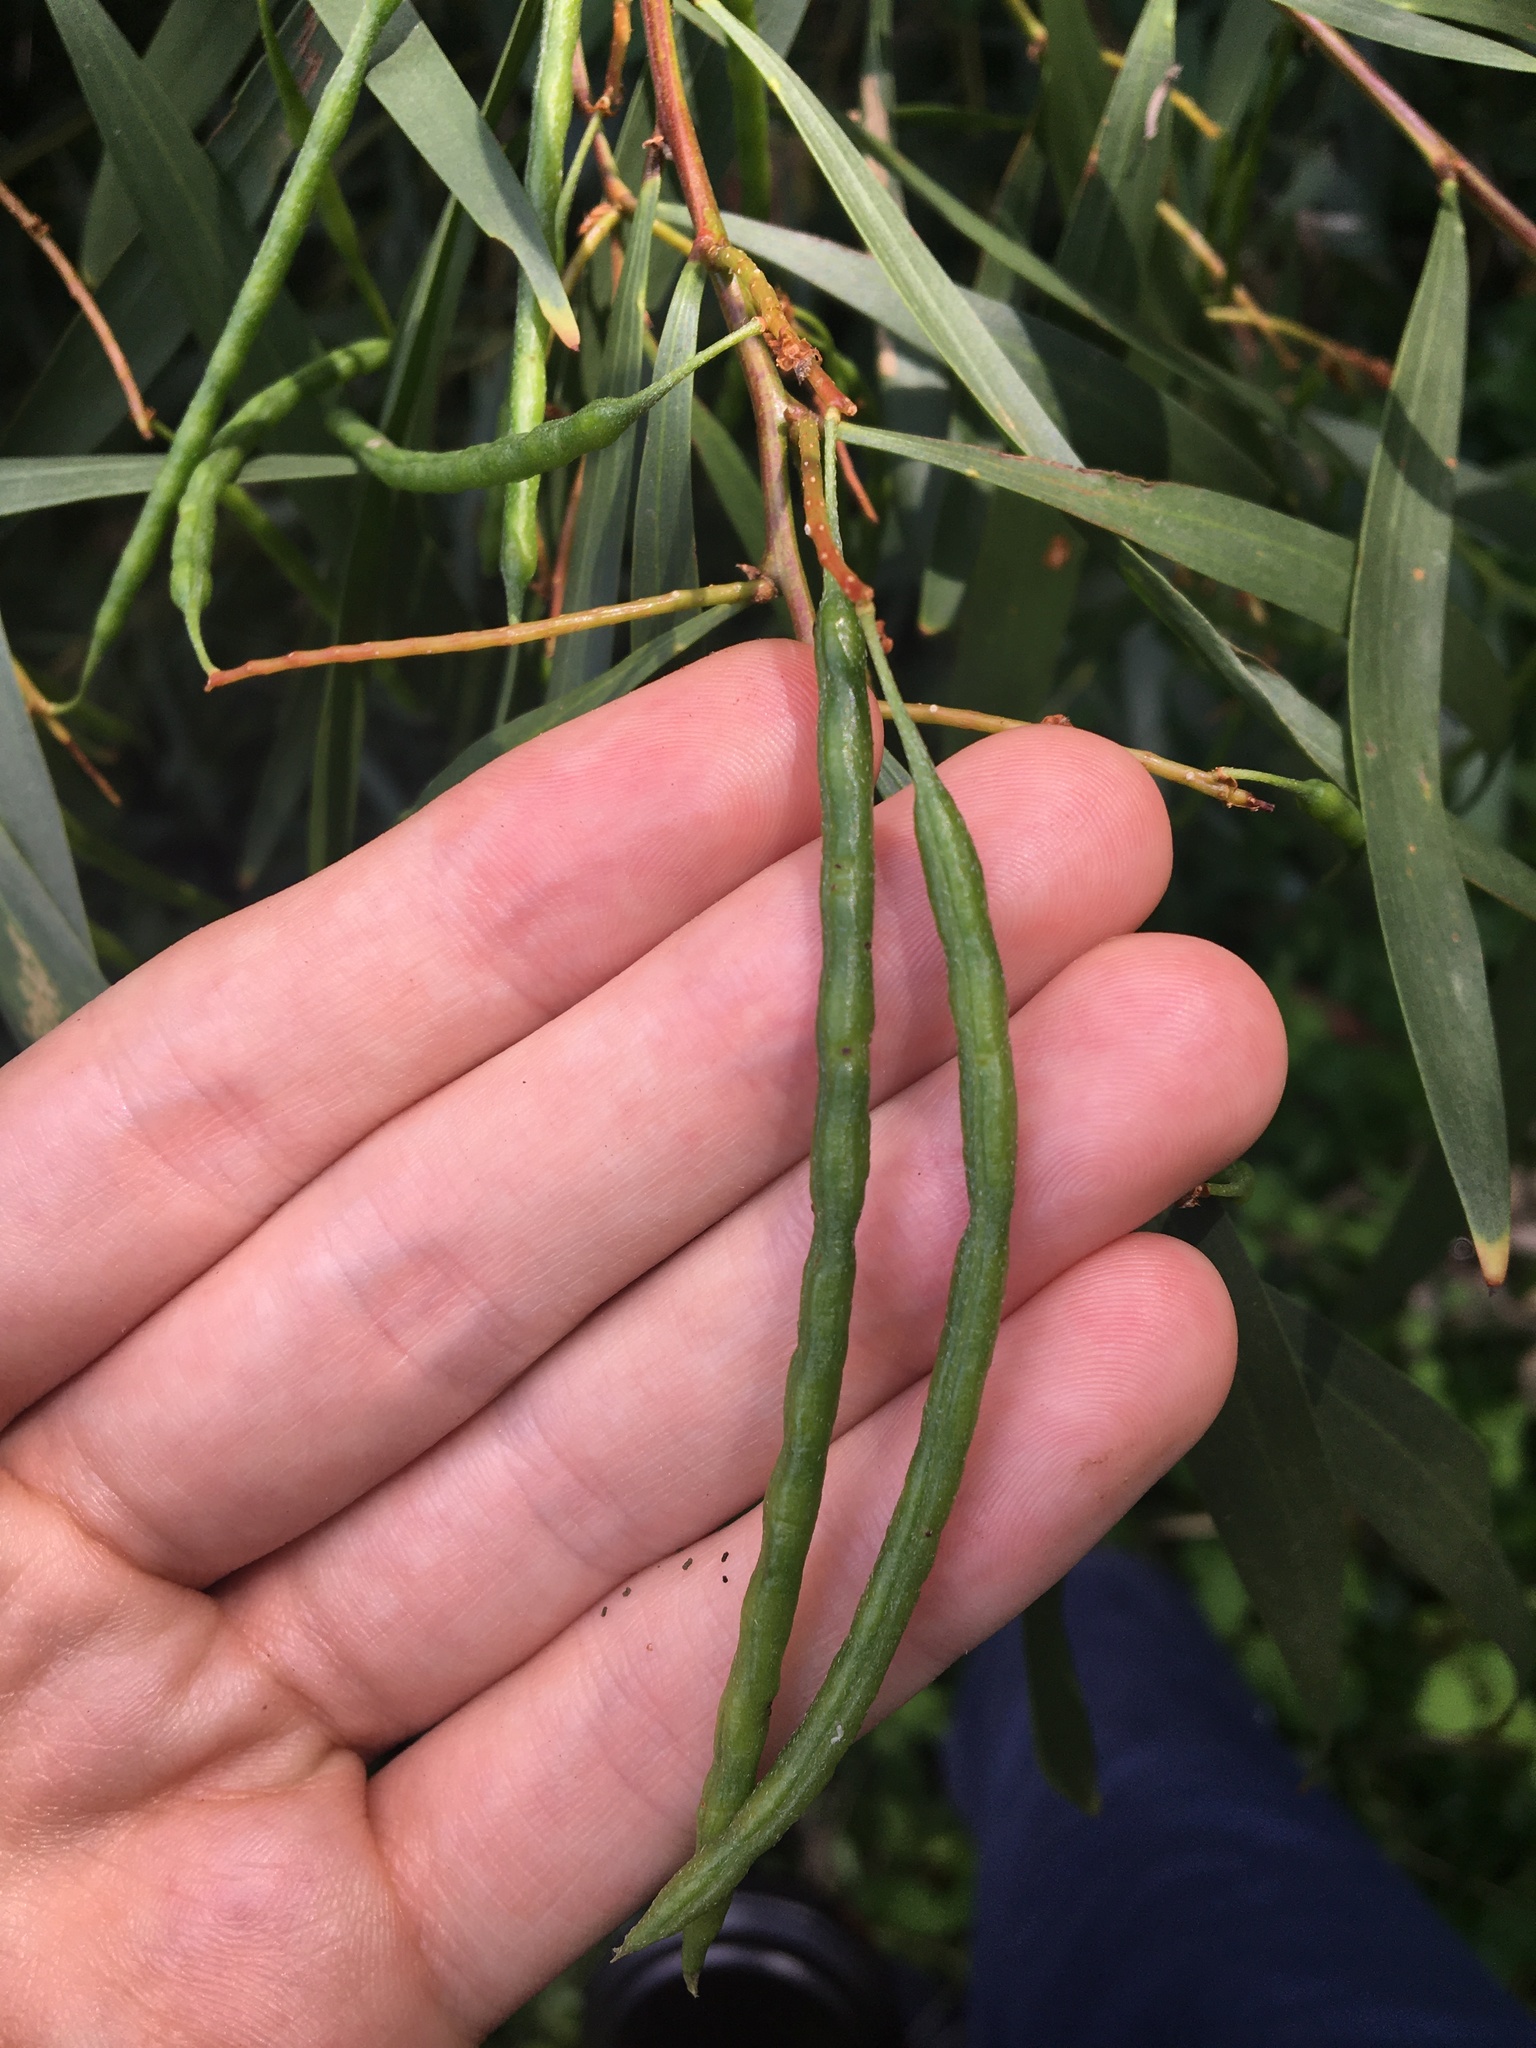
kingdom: Plantae
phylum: Tracheophyta
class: Magnoliopsida
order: Fabales
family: Fabaceae
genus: Acacia
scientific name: Acacia longifolia
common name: Sydney golden wattle
